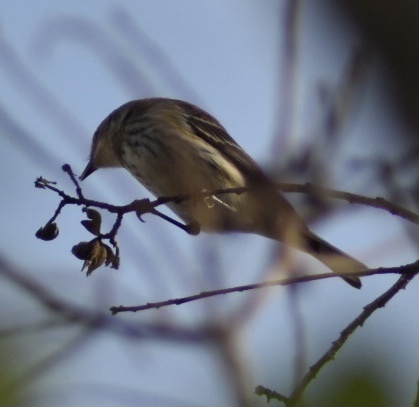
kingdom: Animalia
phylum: Chordata
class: Aves
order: Passeriformes
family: Parulidae
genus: Setophaga
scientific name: Setophaga coronata
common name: Myrtle warbler
